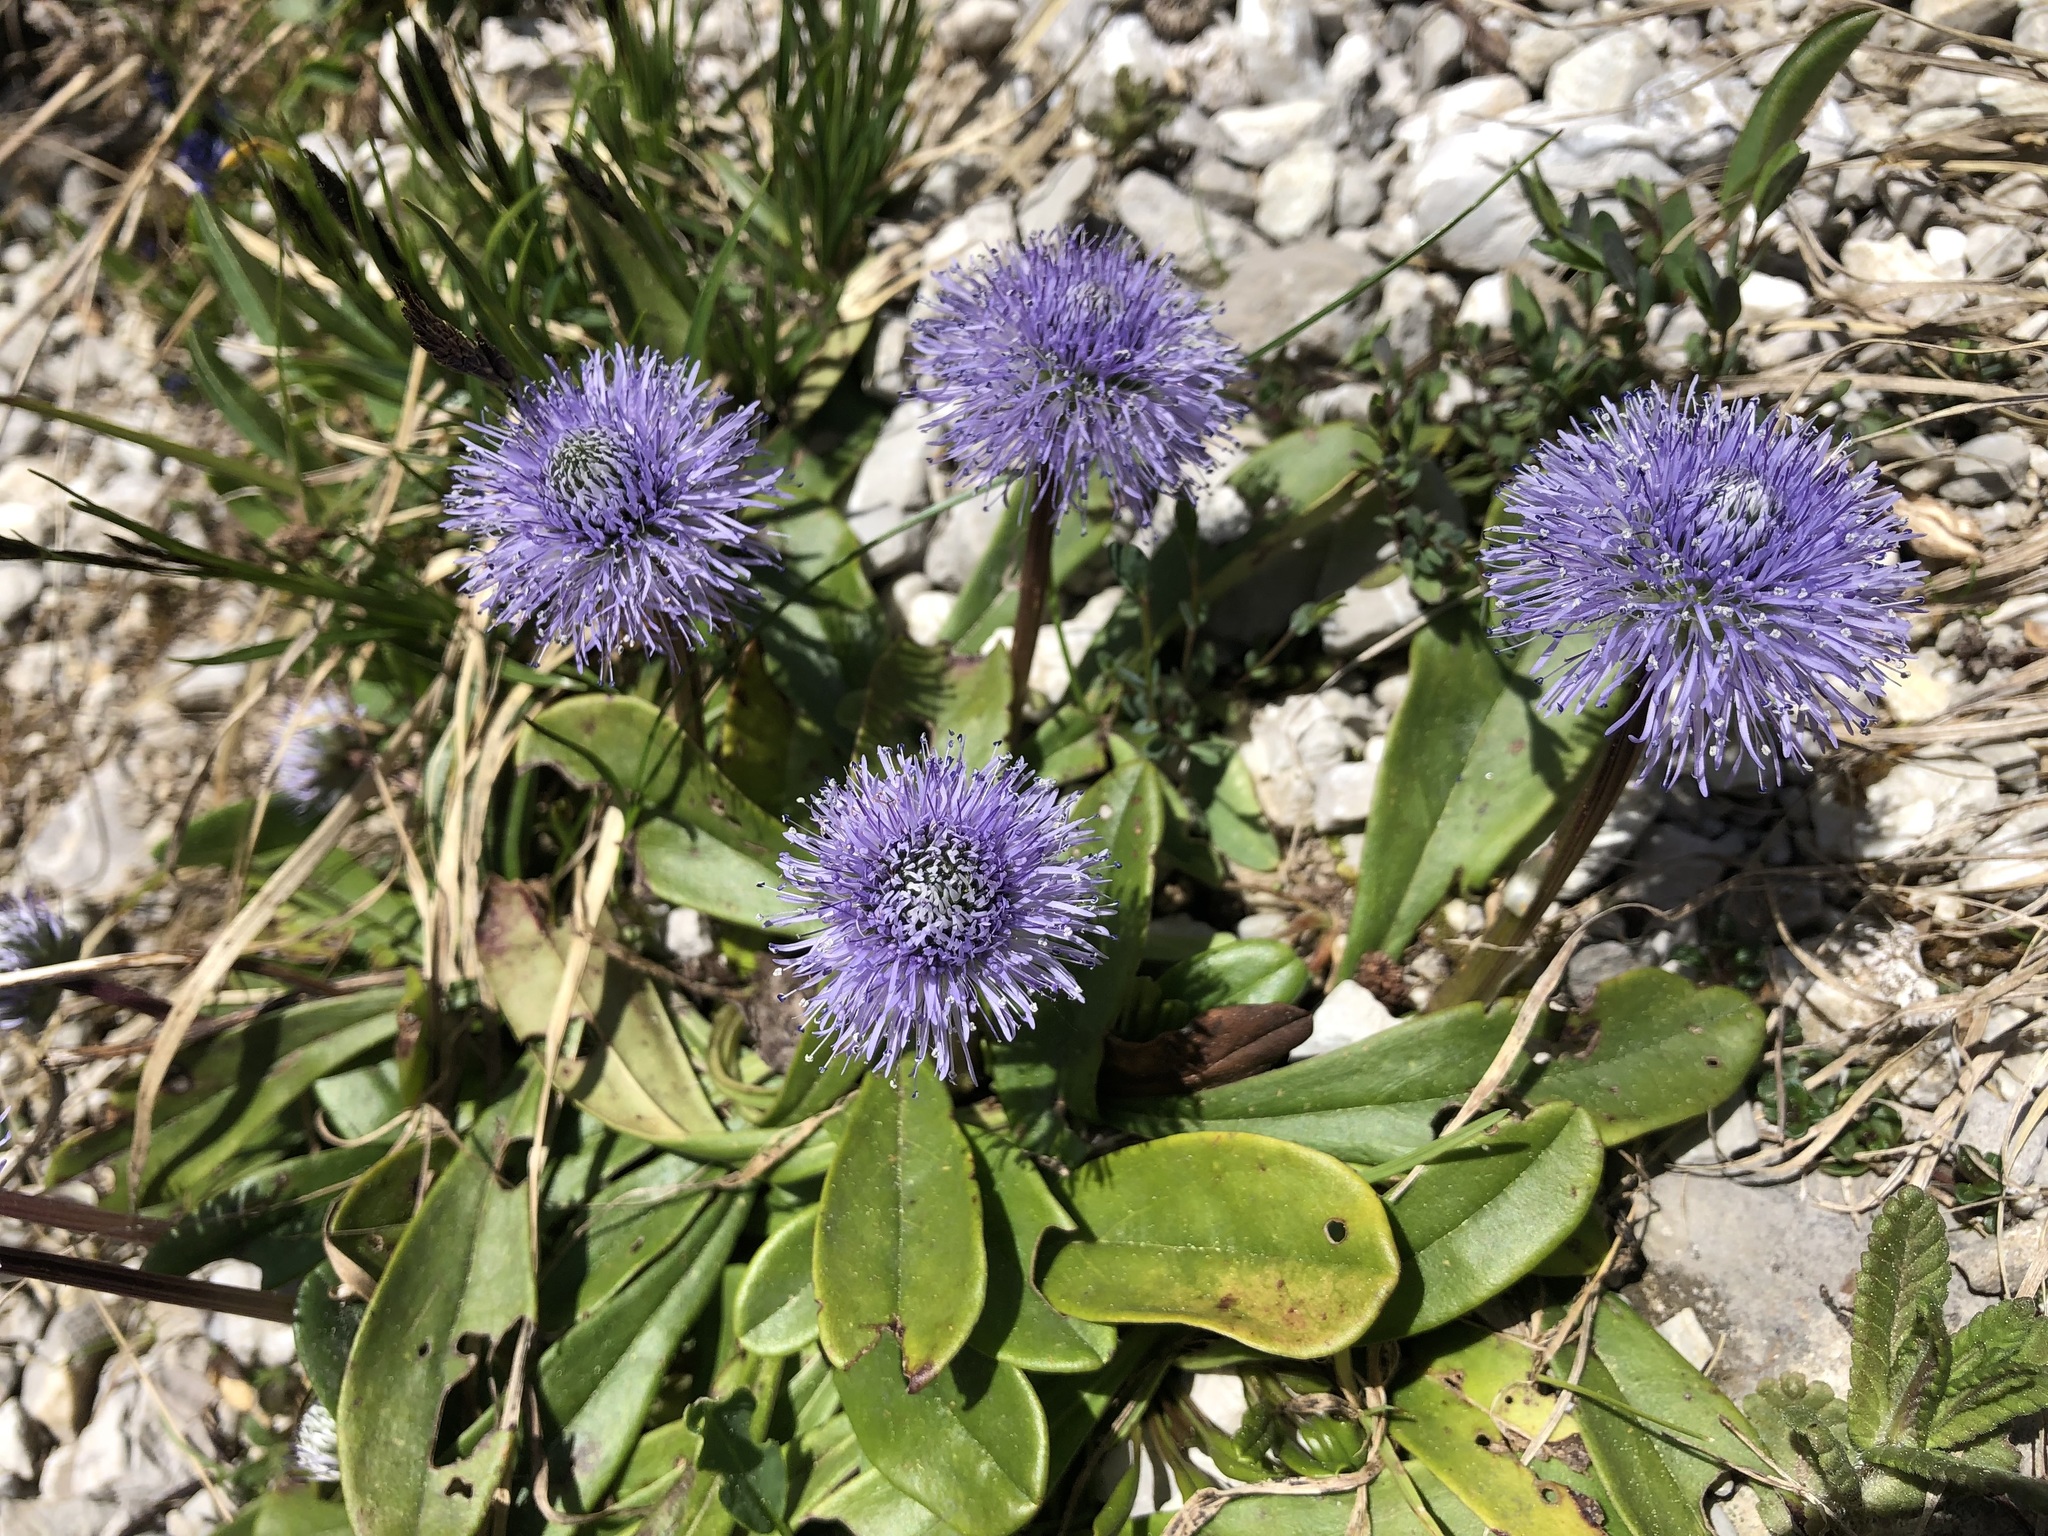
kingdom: Plantae
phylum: Tracheophyta
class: Magnoliopsida
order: Lamiales
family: Plantaginaceae
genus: Globularia
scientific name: Globularia nudicaulis
